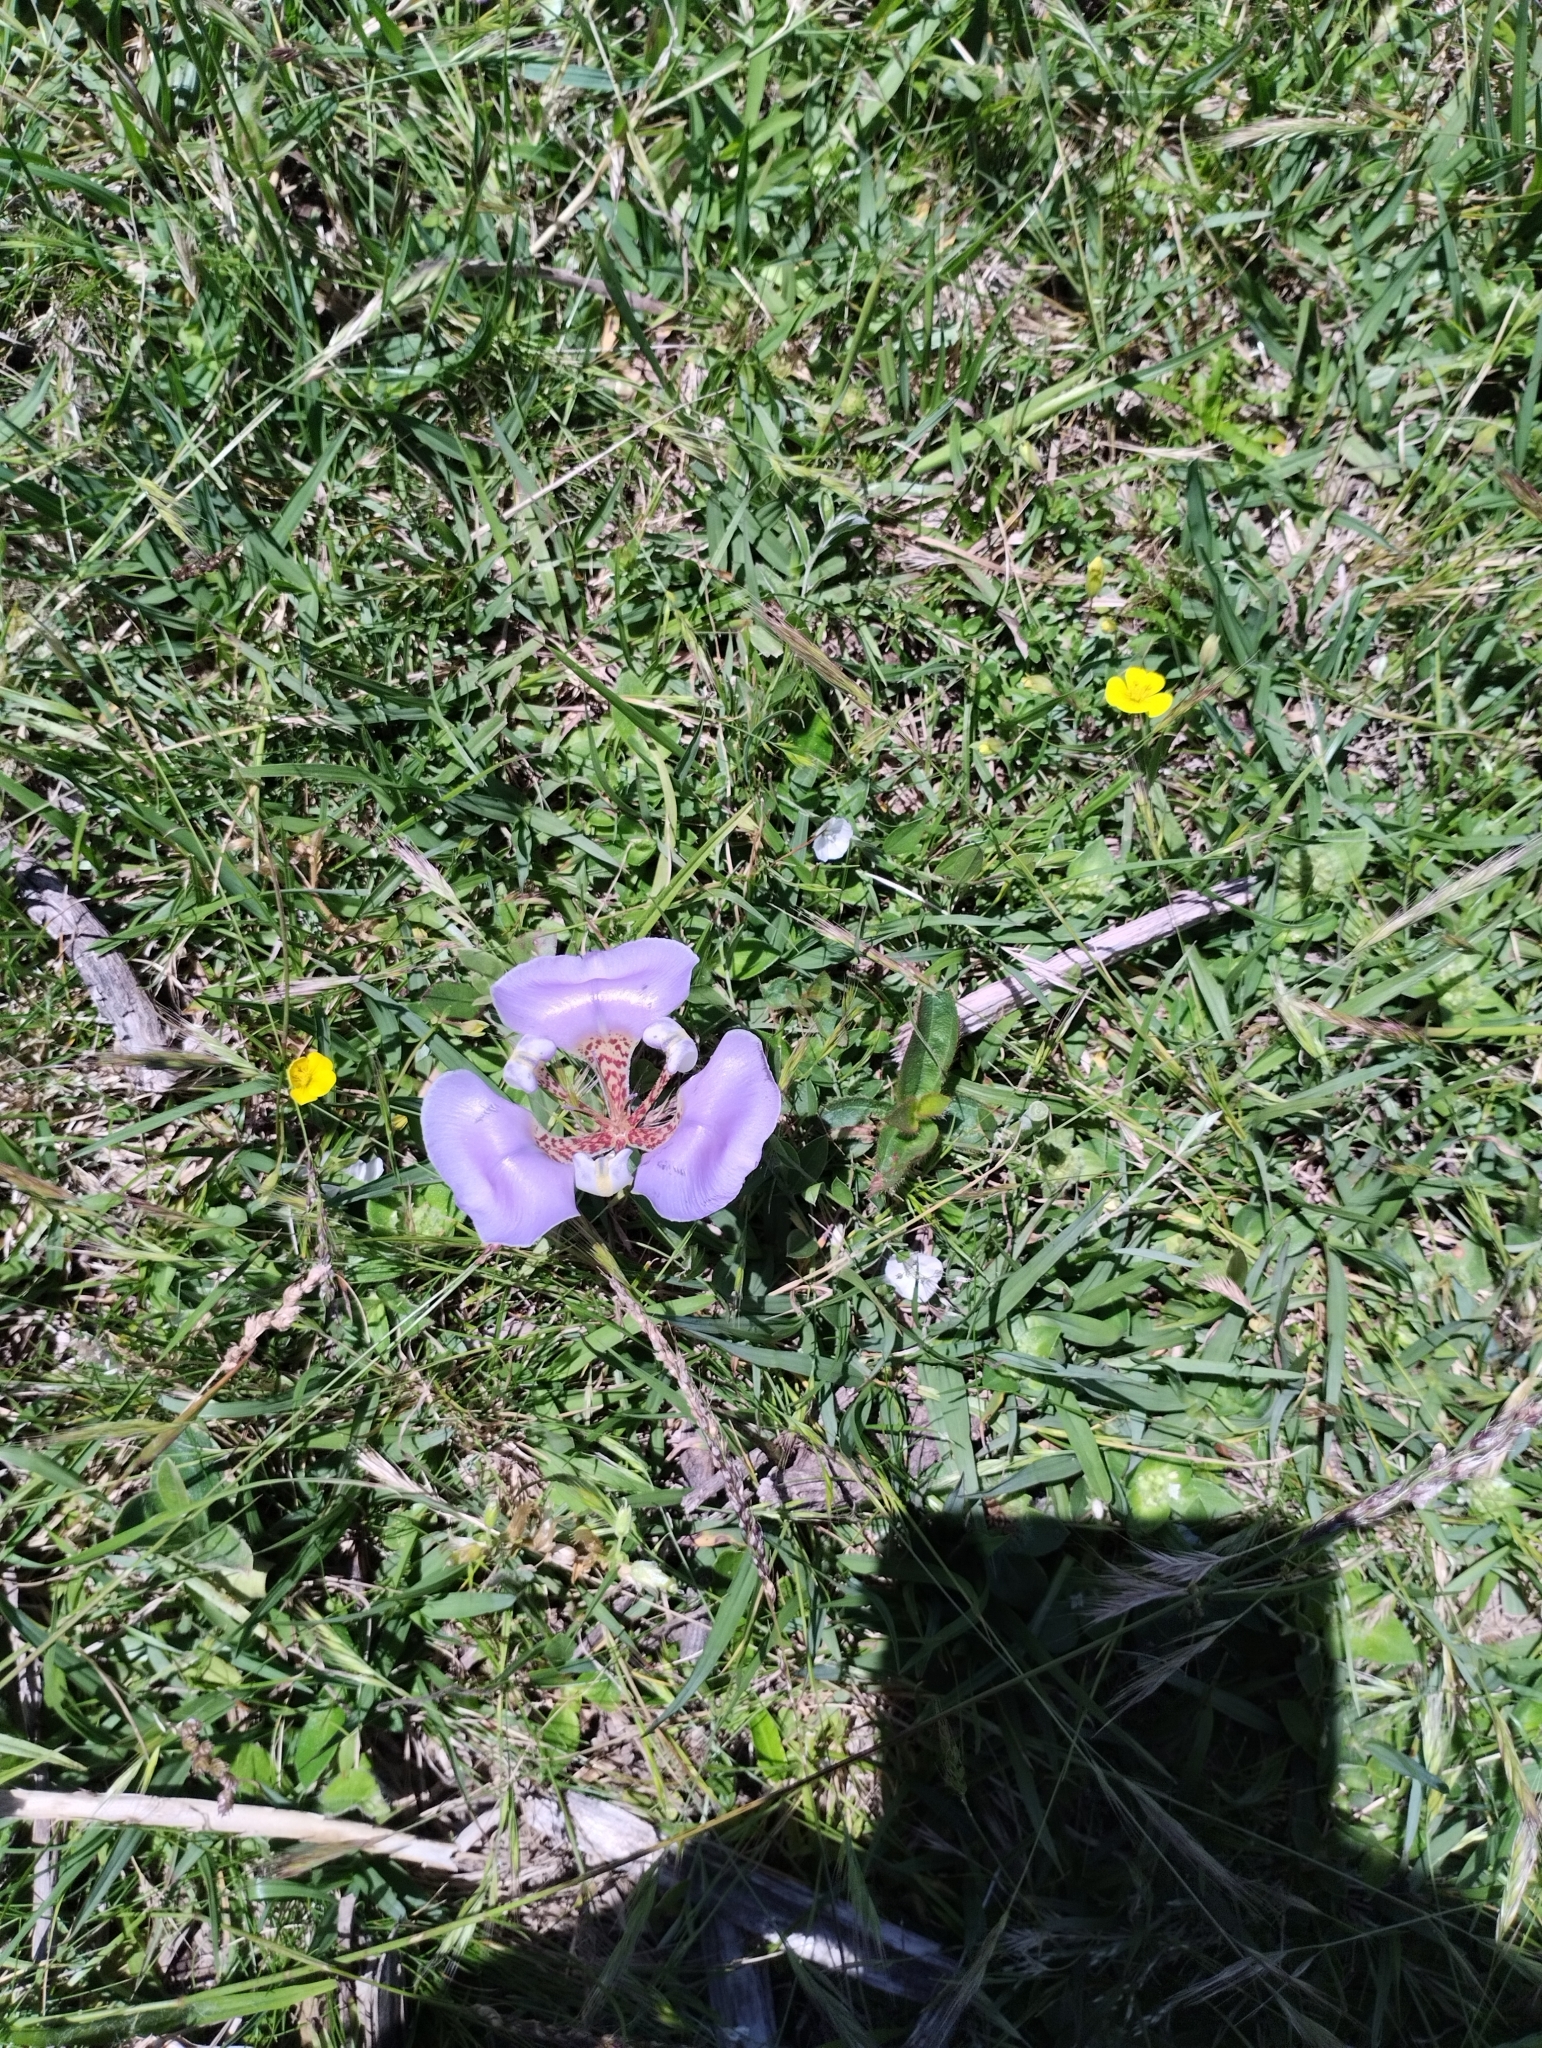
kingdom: Plantae
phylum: Tracheophyta
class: Liliopsida
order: Asparagales
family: Iridaceae
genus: Cypella
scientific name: Cypella unguiculata
